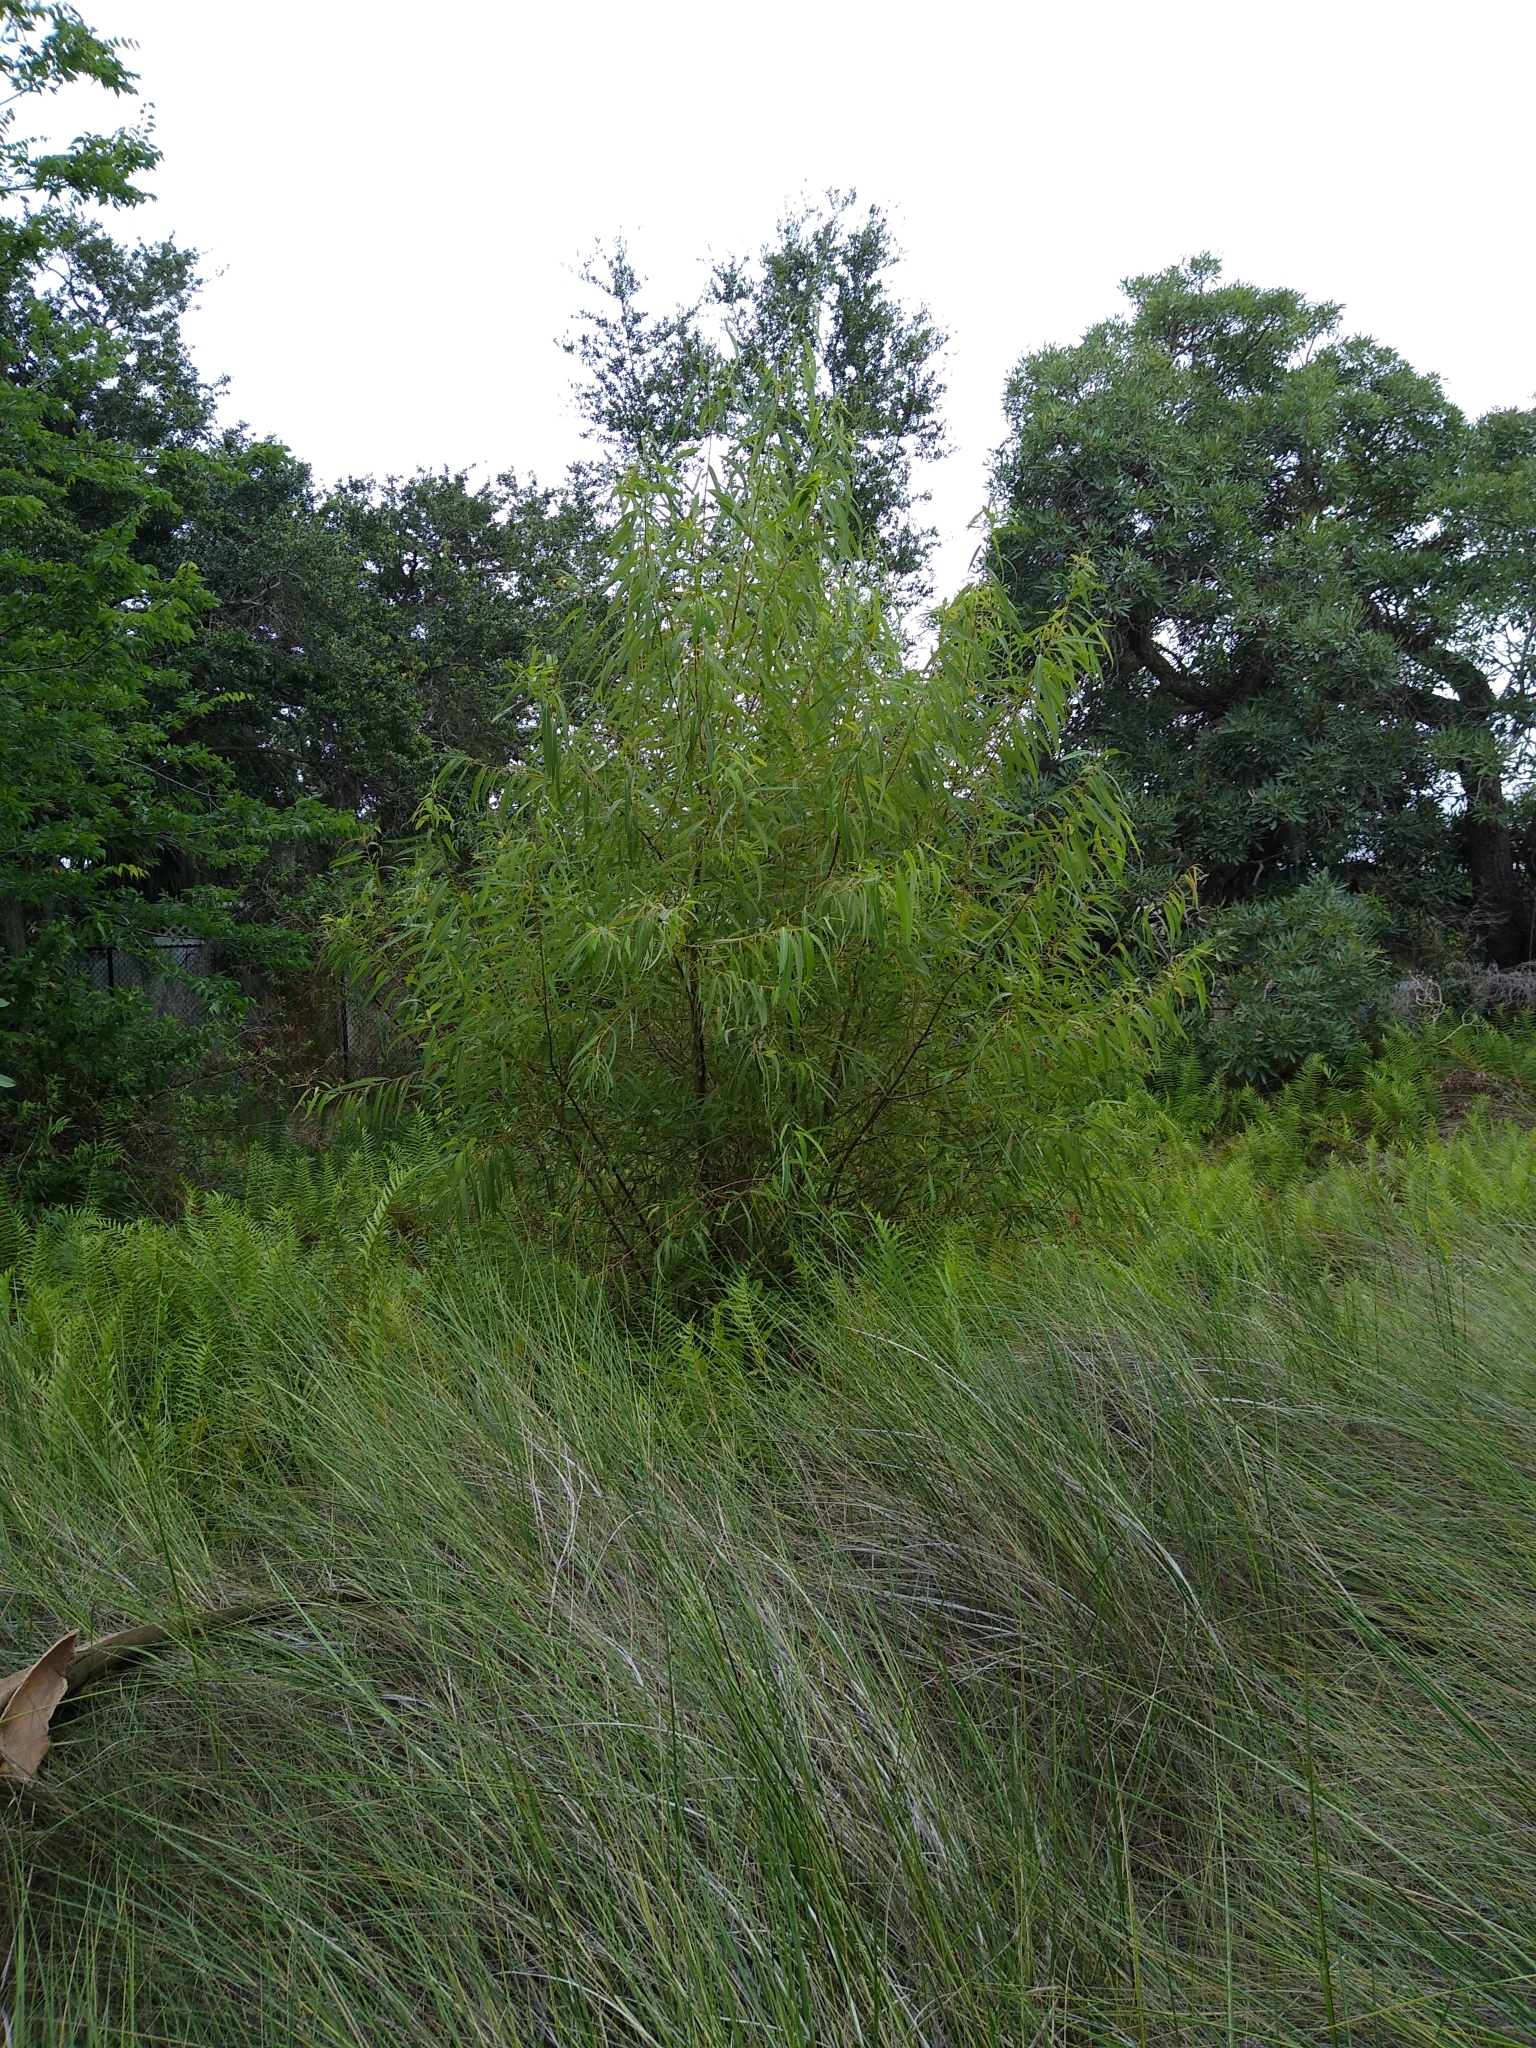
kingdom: Plantae
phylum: Tracheophyta
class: Magnoliopsida
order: Malpighiales
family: Salicaceae
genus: Salix
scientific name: Salix caroliniana
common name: Carolina willow
